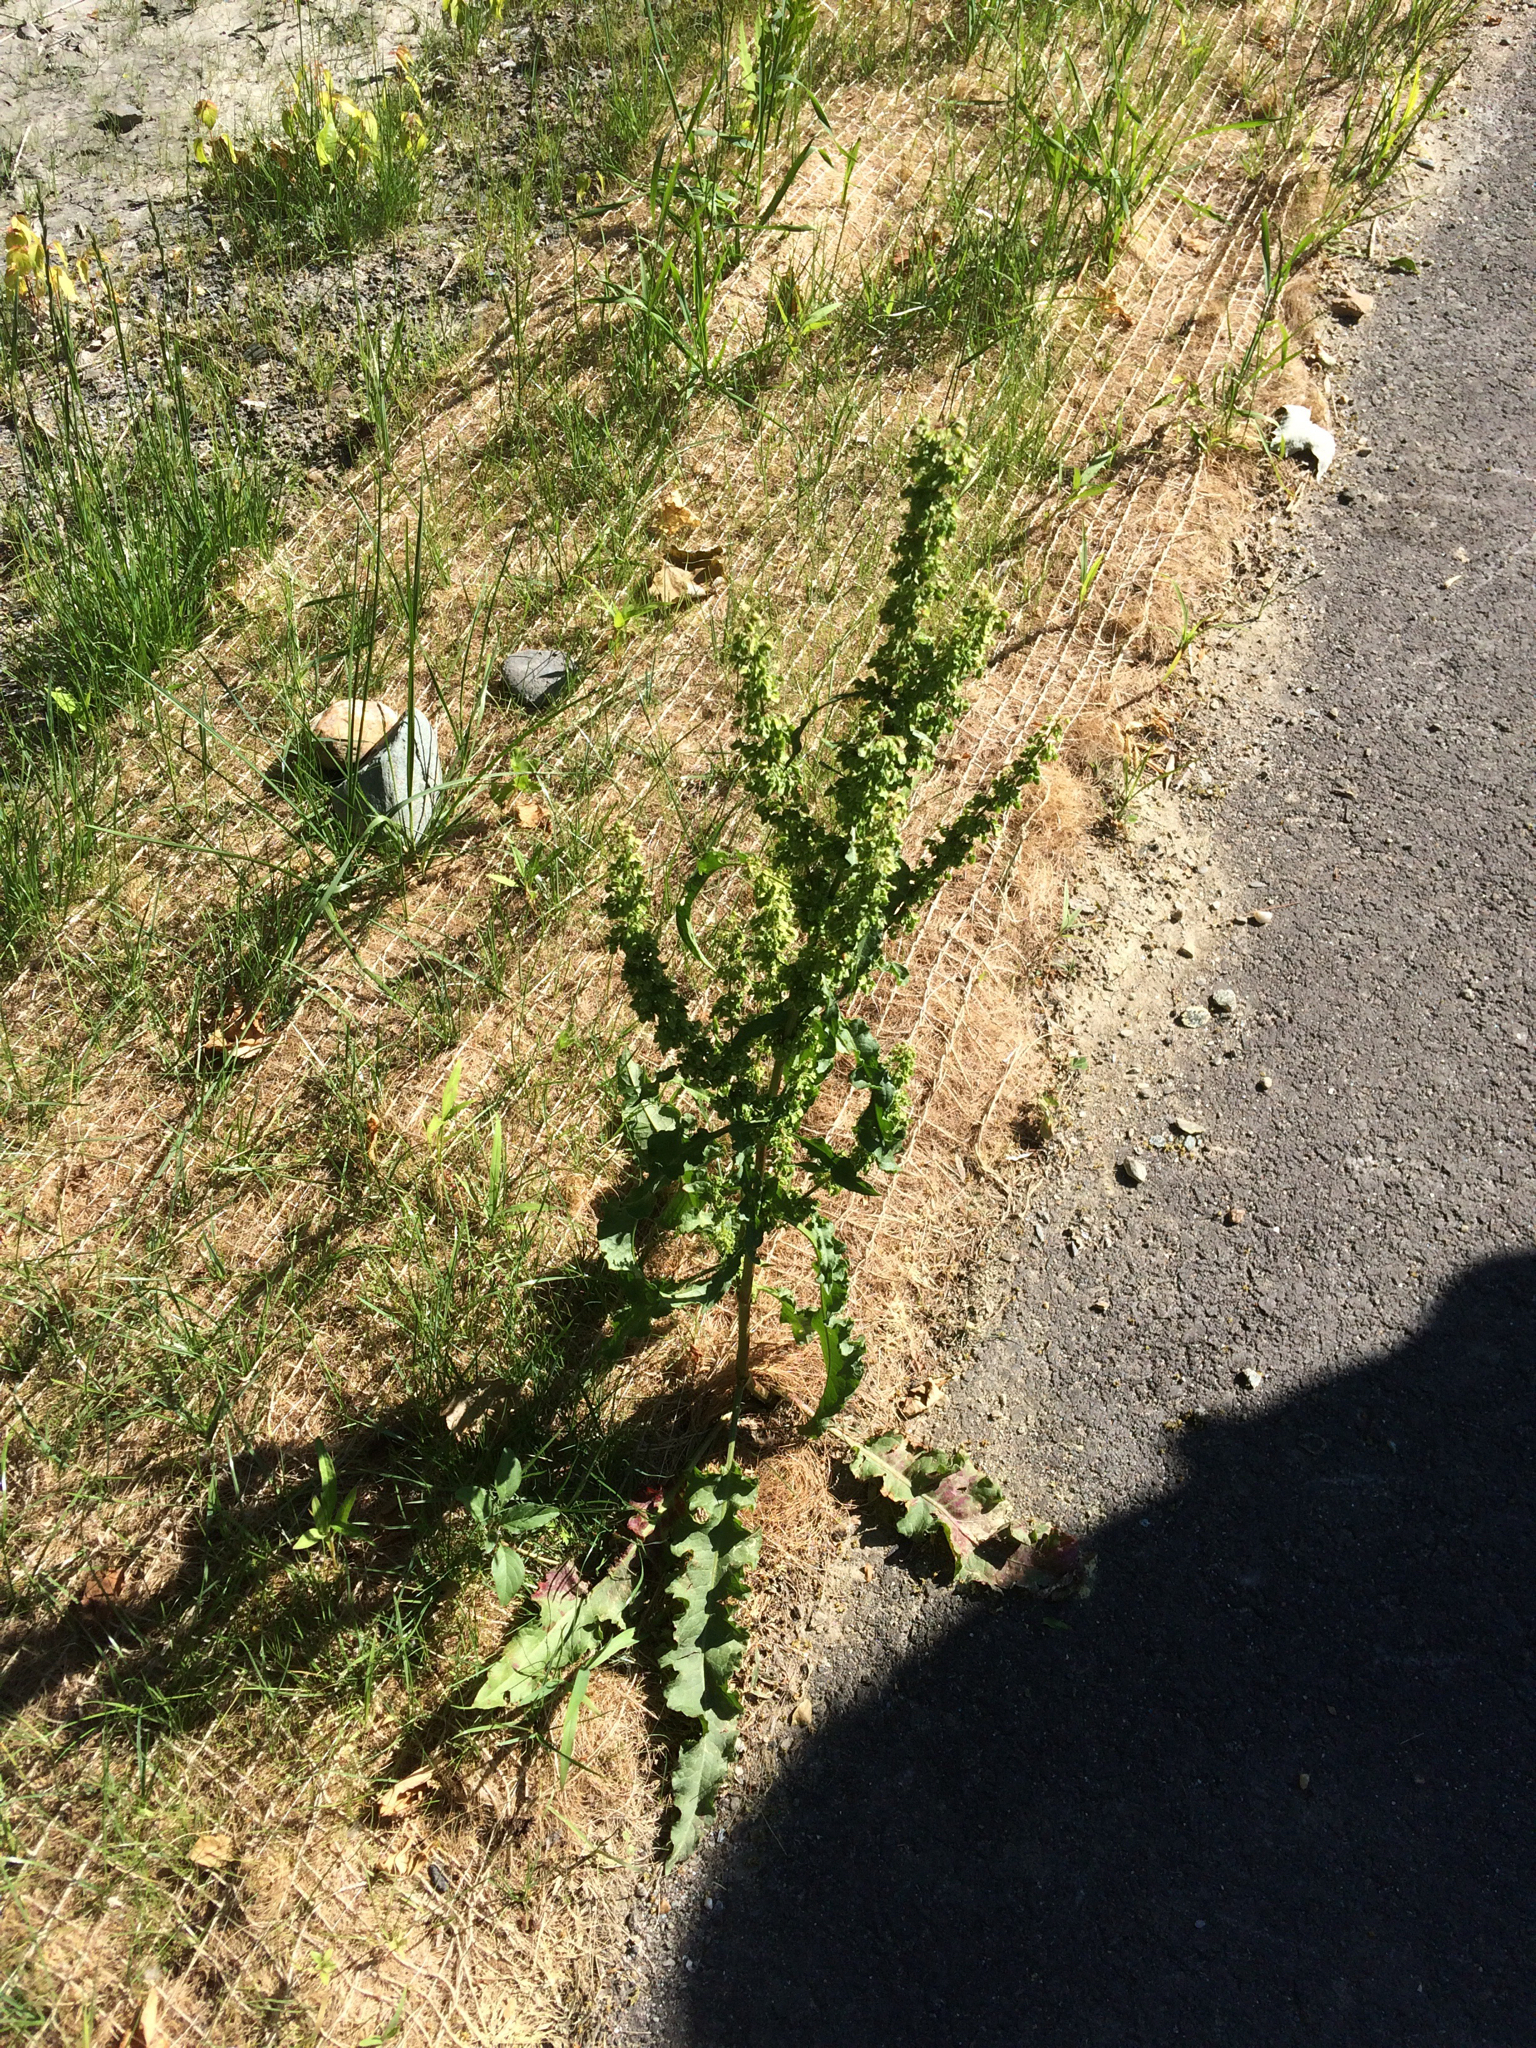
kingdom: Plantae
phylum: Tracheophyta
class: Magnoliopsida
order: Caryophyllales
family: Polygonaceae
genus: Rumex
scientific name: Rumex crispus
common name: Curled dock
